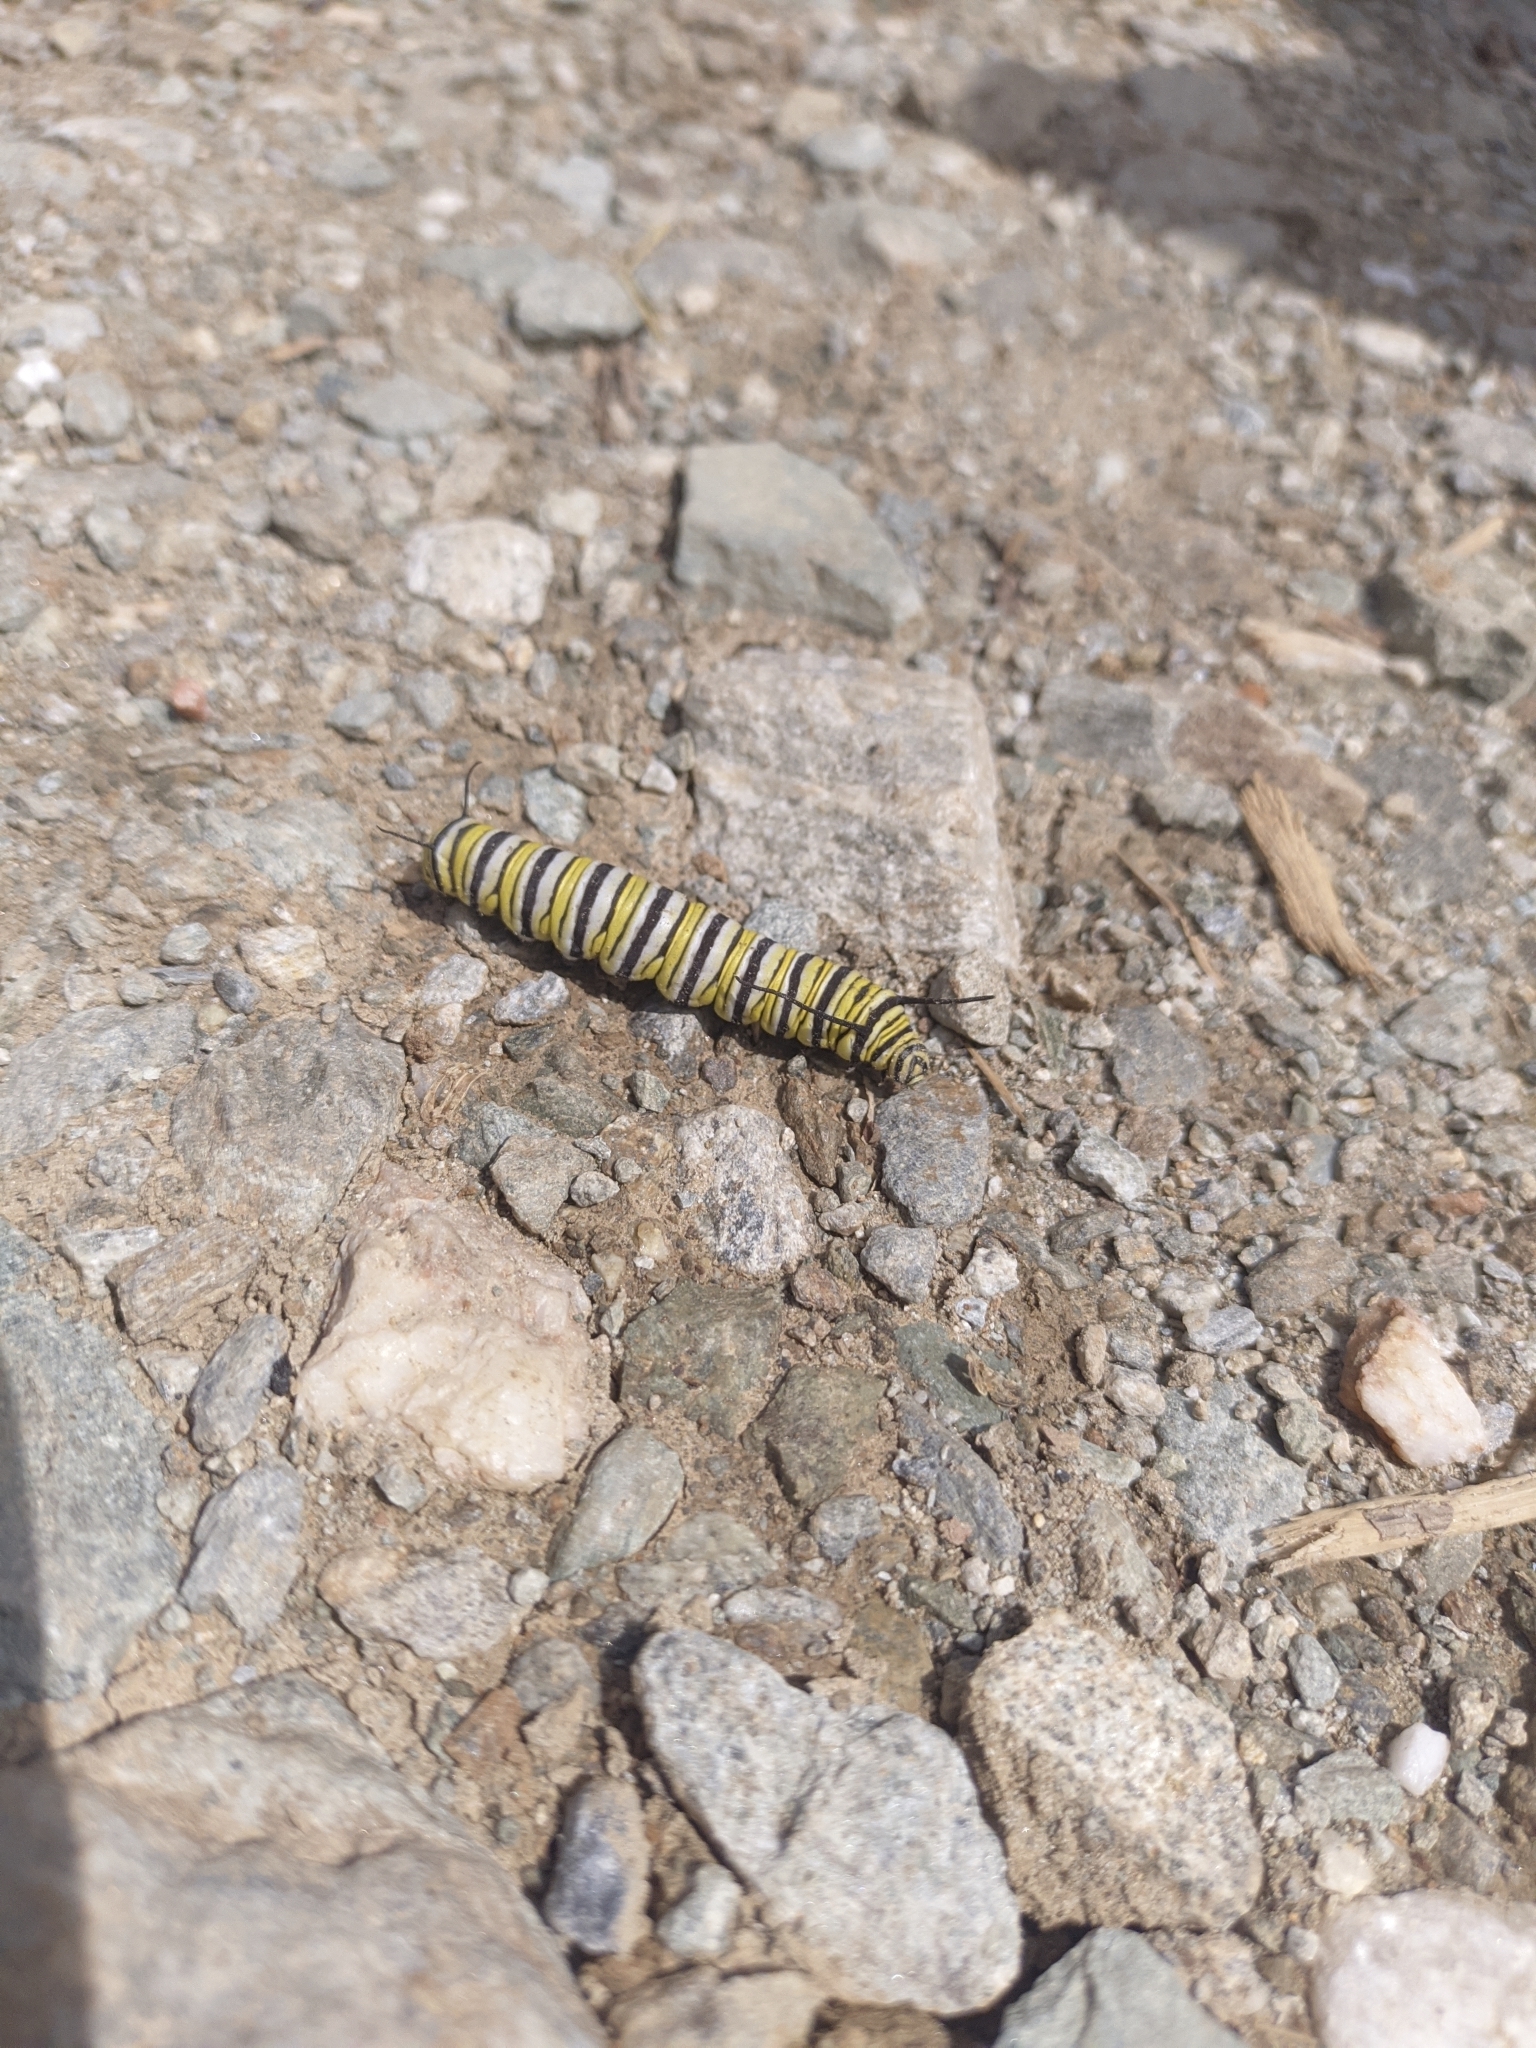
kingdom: Animalia
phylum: Arthropoda
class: Insecta
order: Lepidoptera
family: Nymphalidae
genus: Danaus
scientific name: Danaus plexippus
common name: Monarch
